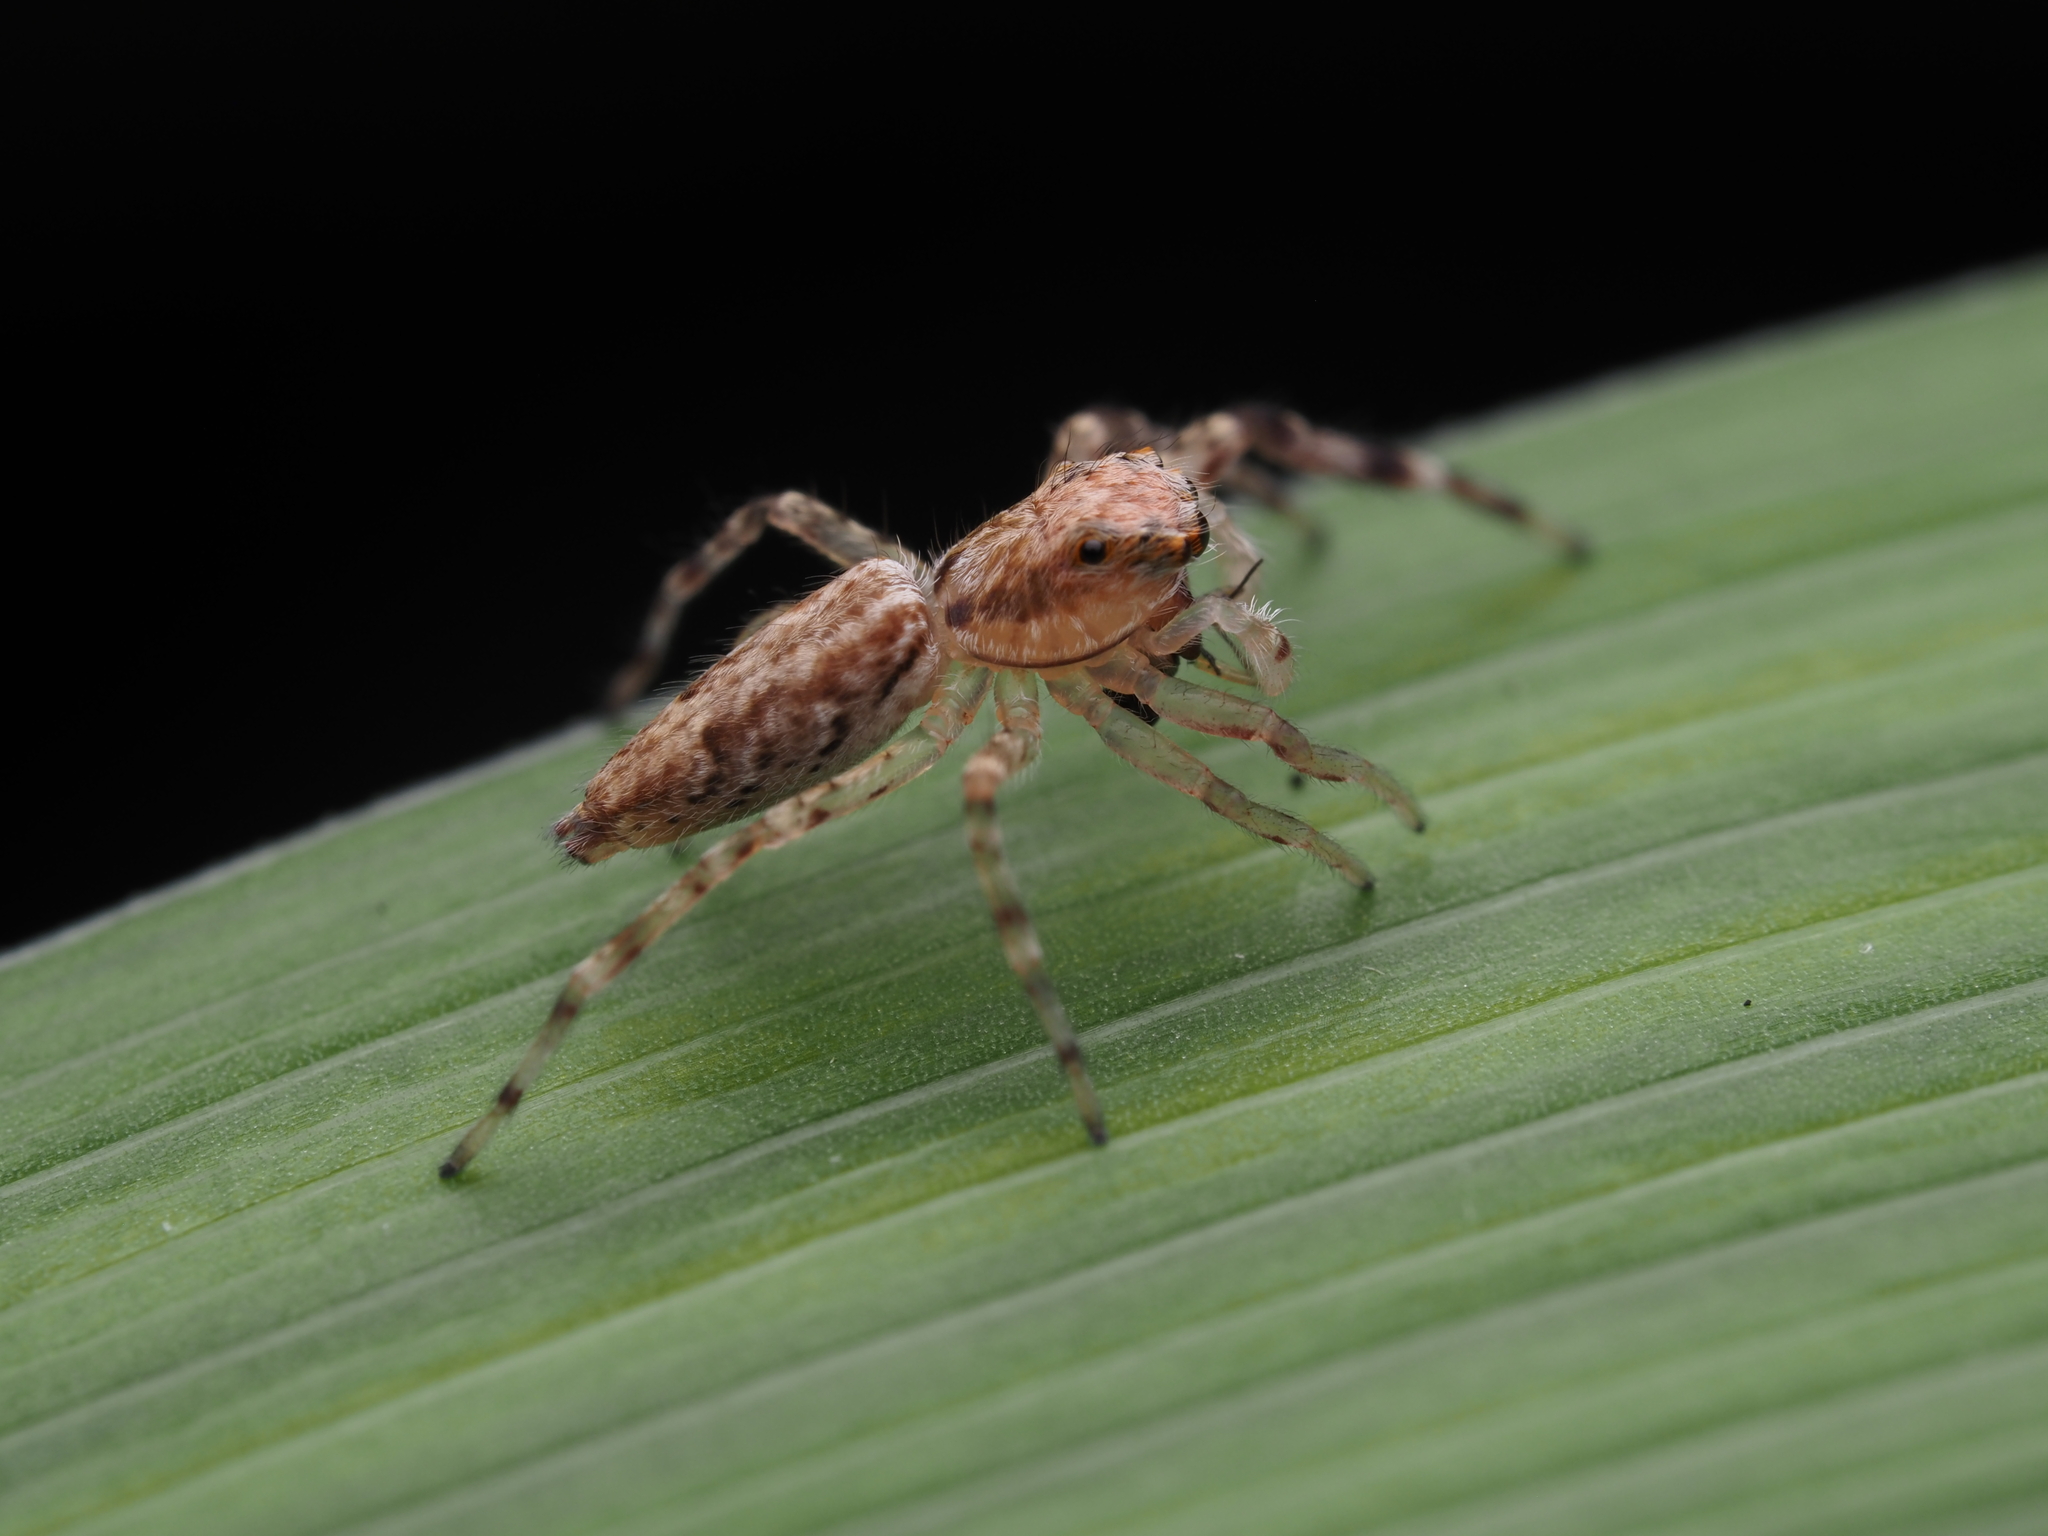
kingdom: Animalia
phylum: Arthropoda
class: Arachnida
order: Araneae
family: Salticidae
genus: Helpis
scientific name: Helpis minitabunda
